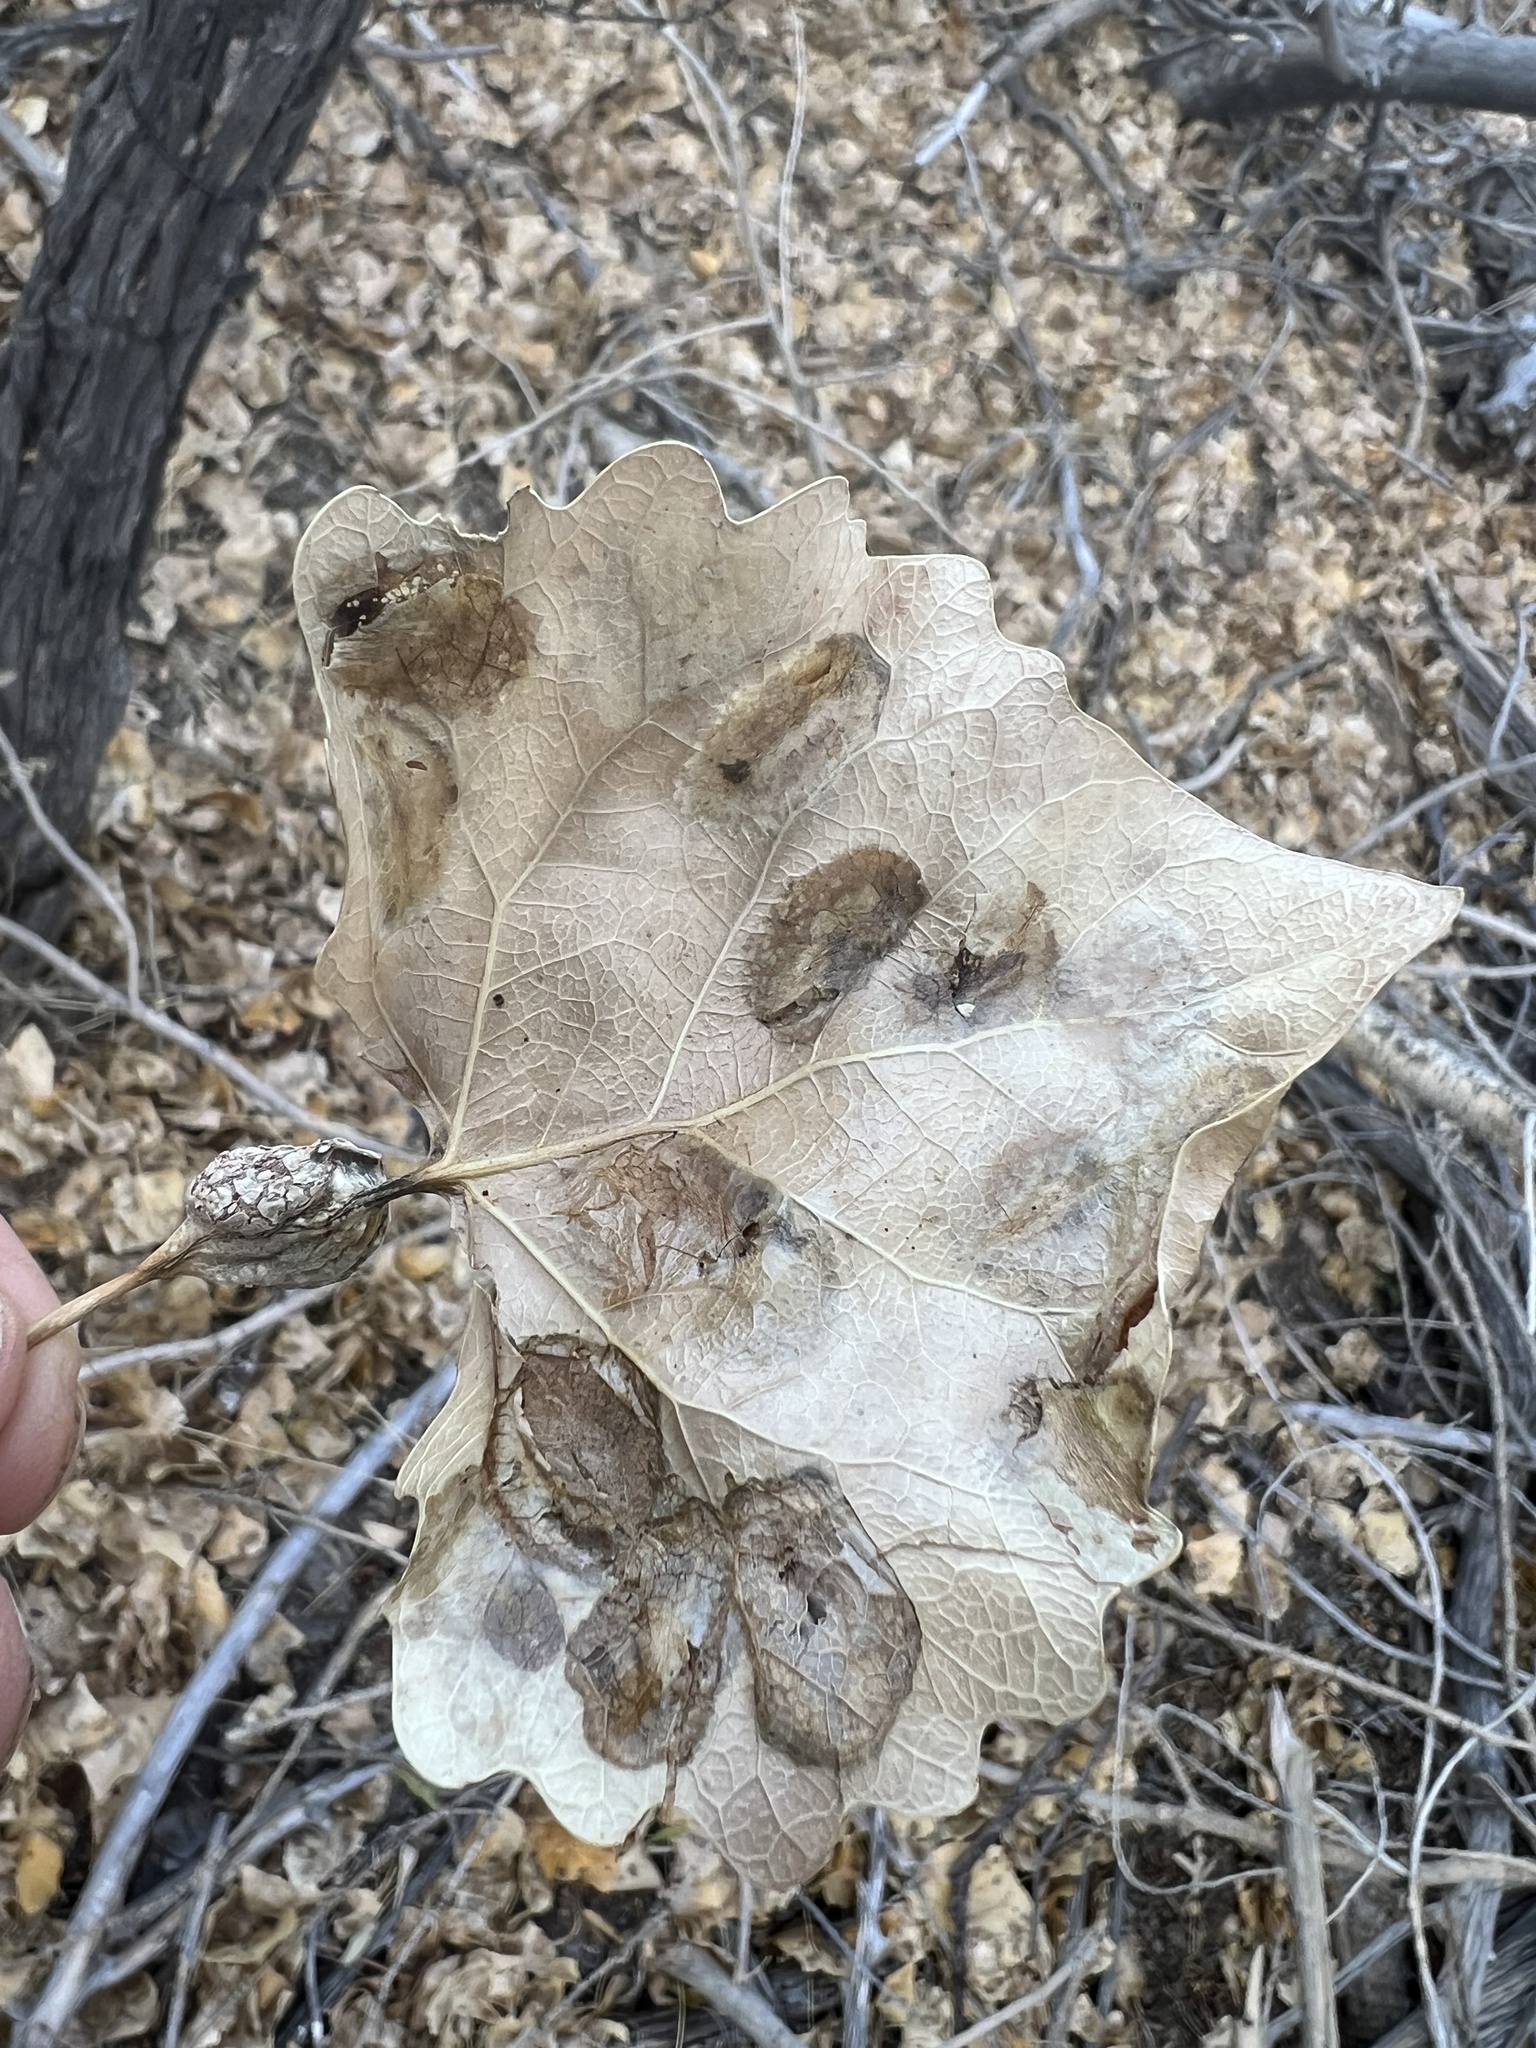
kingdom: Plantae
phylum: Tracheophyta
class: Magnoliopsida
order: Malpighiales
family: Salicaceae
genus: Populus
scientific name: Populus fremontii
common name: Fremont's cottonwood
